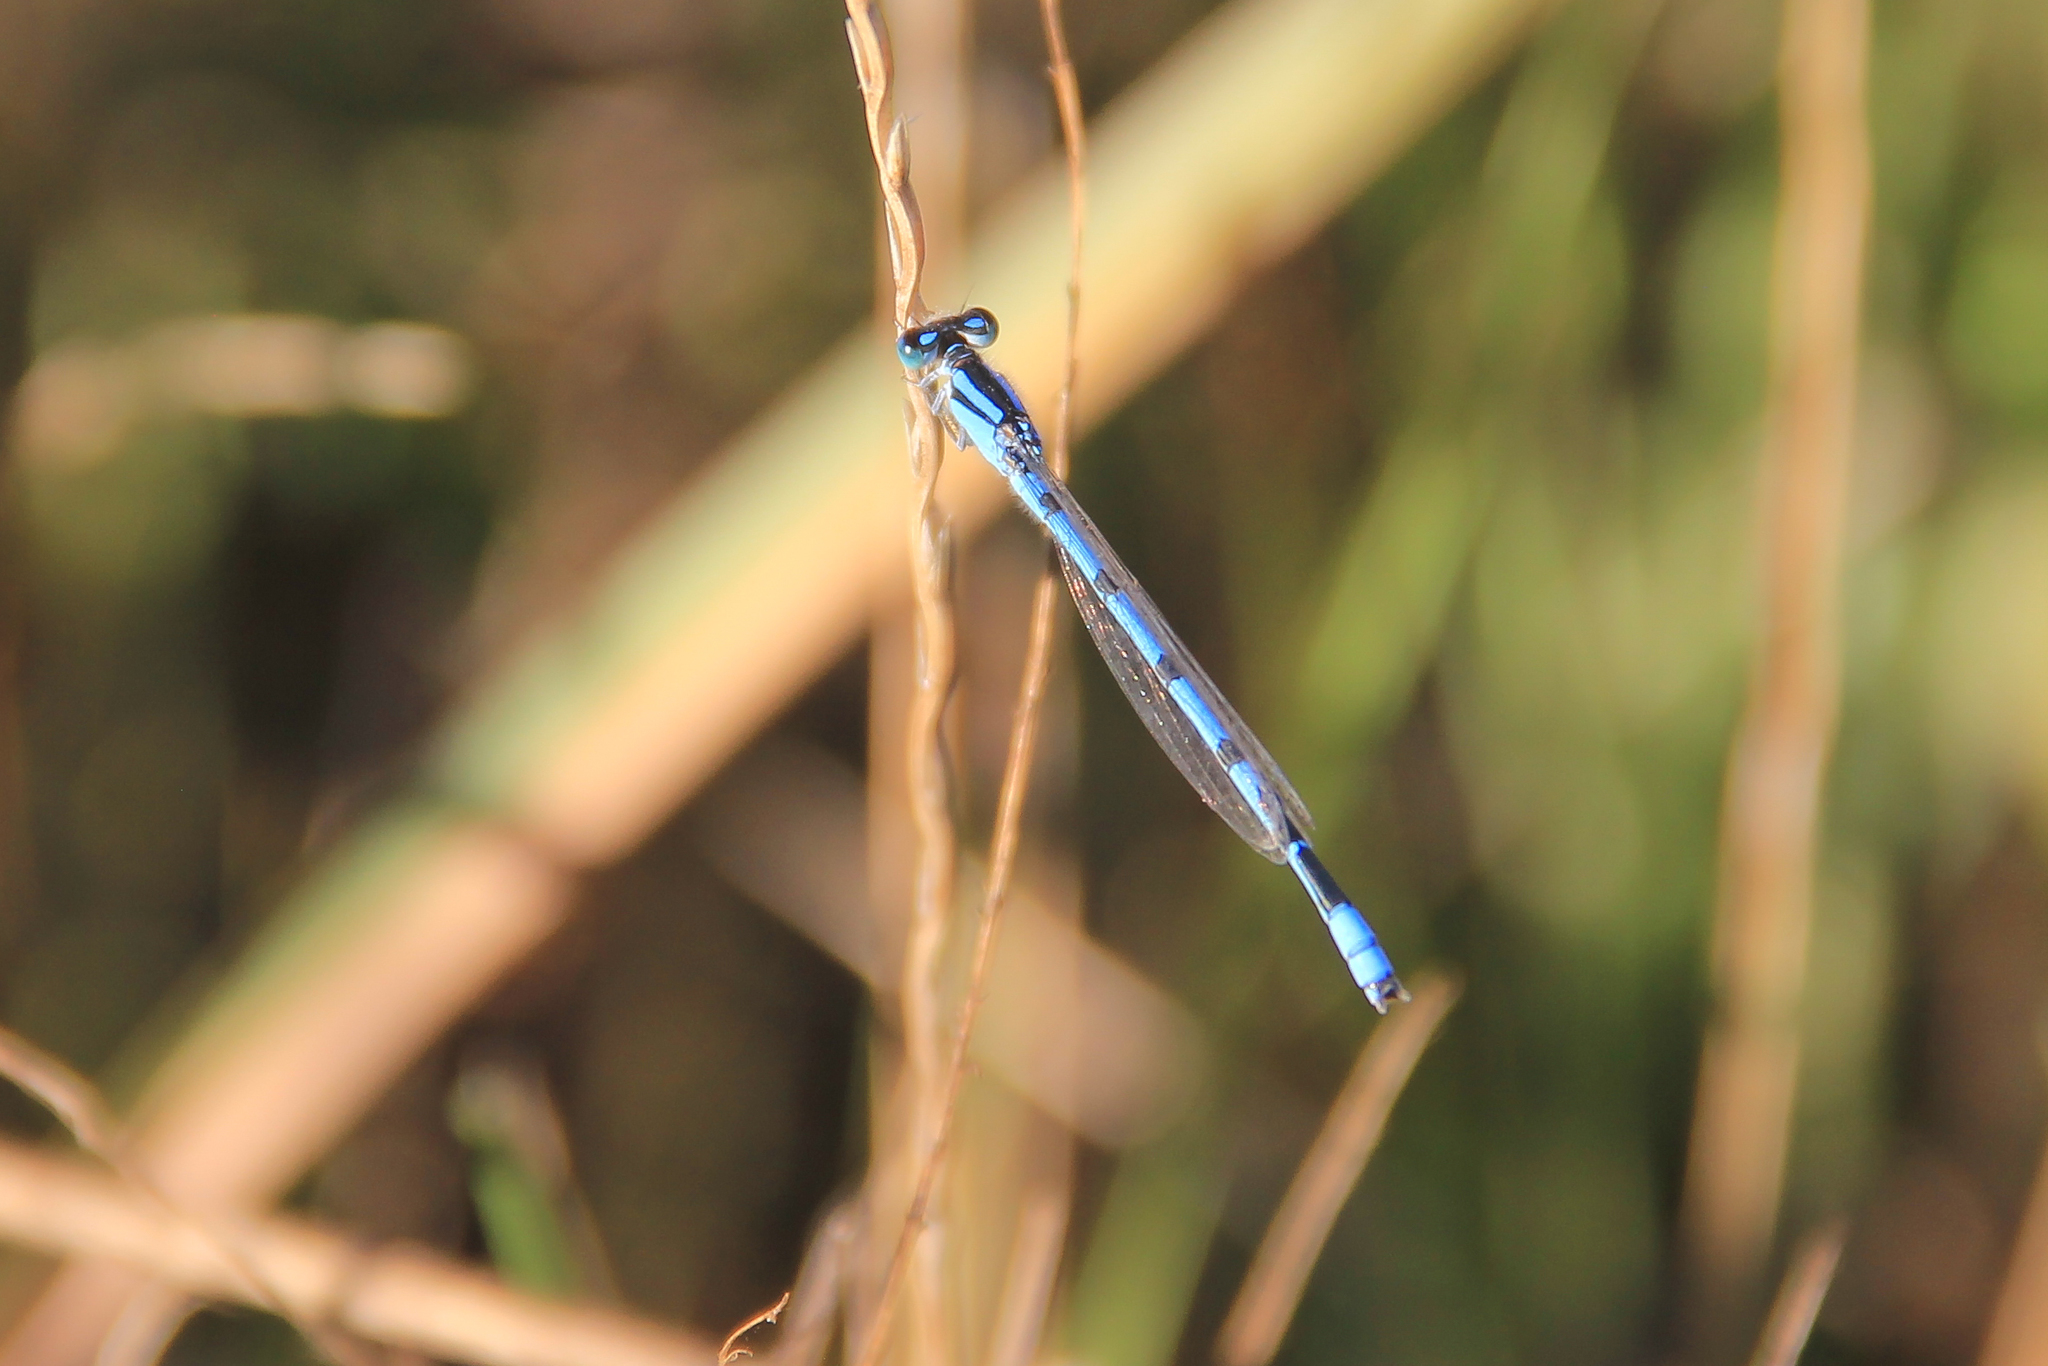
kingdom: Animalia
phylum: Arthropoda
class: Insecta
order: Odonata
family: Coenagrionidae
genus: Enallagma
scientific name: Enallagma civile
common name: Damselfly
